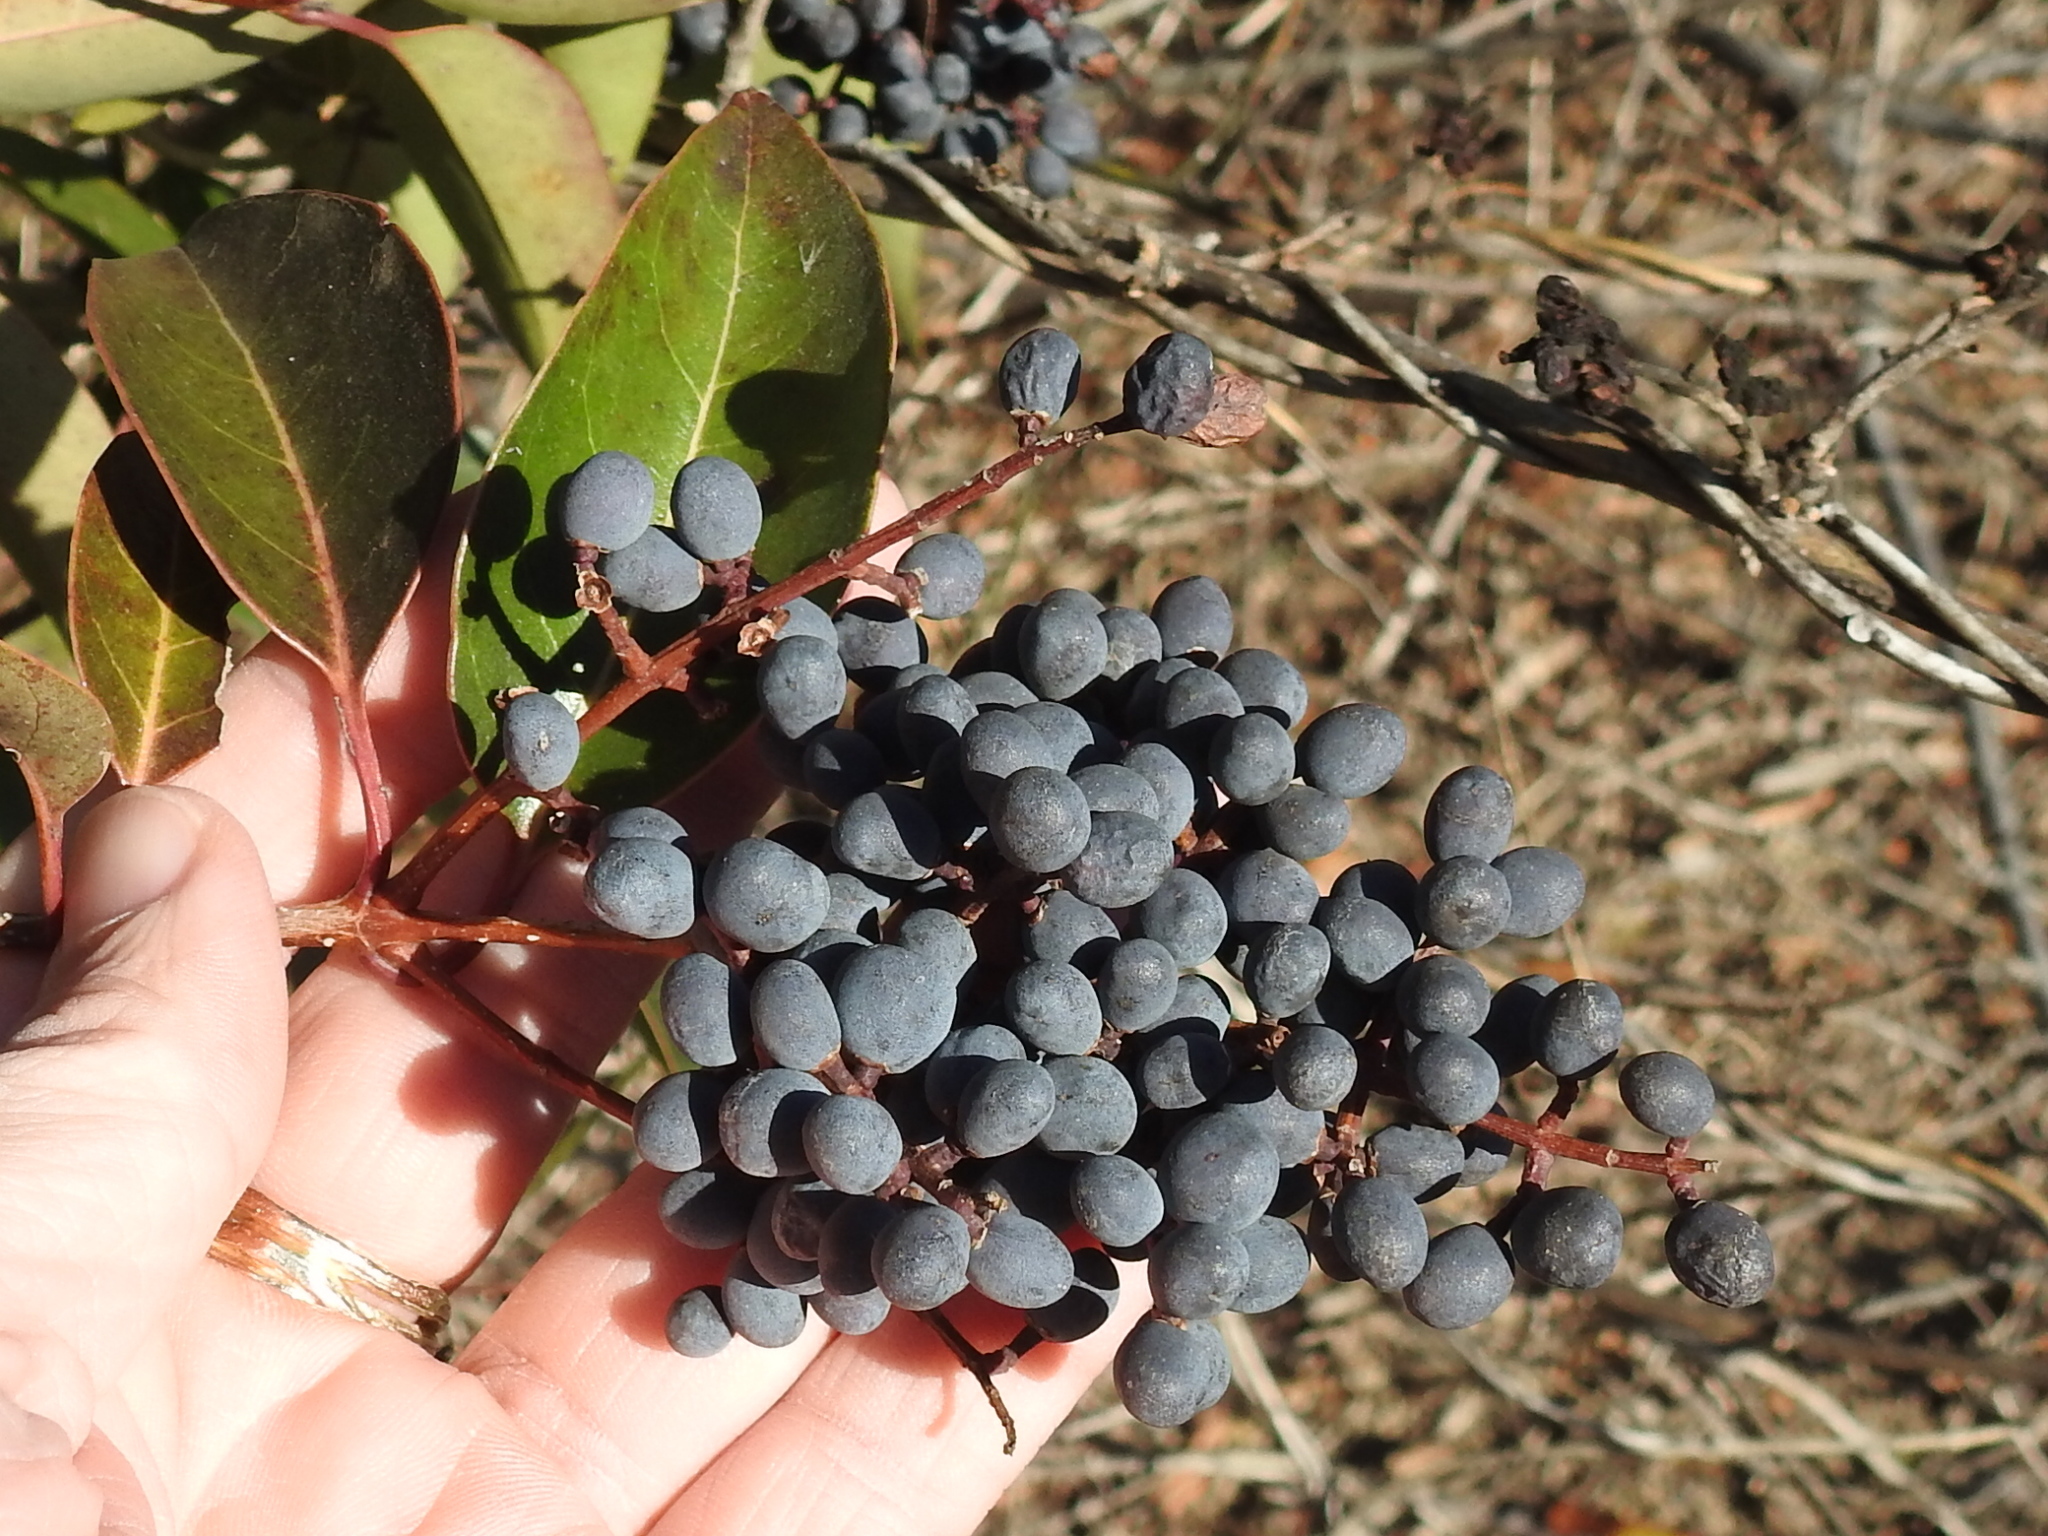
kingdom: Plantae
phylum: Tracheophyta
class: Magnoliopsida
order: Lamiales
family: Oleaceae
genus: Ligustrum
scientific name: Ligustrum lucidum
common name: Glossy privet
